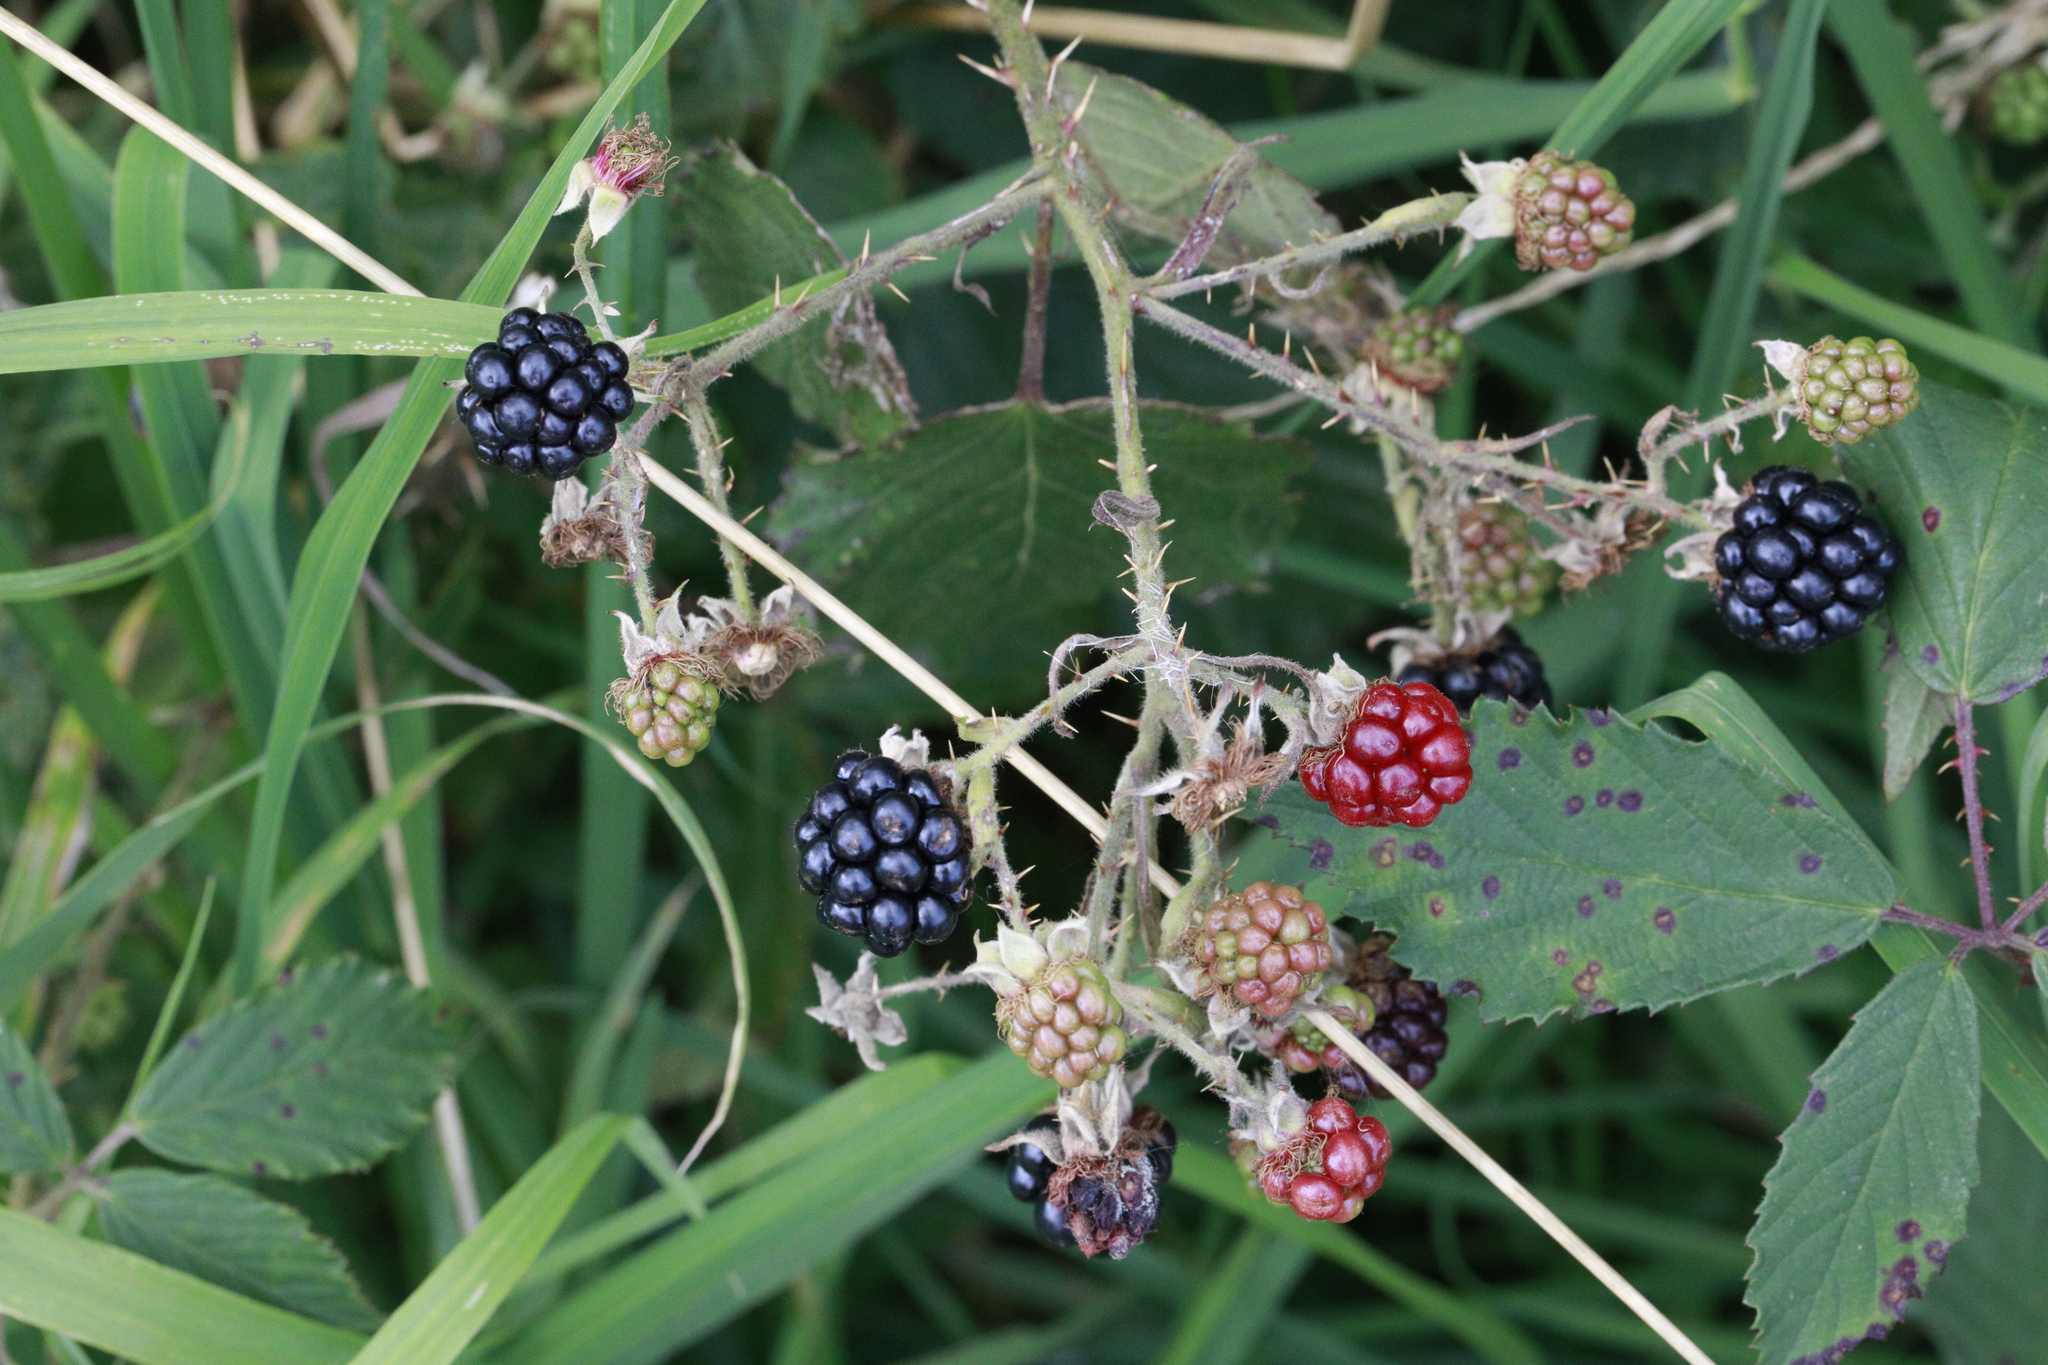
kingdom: Plantae
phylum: Tracheophyta
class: Magnoliopsida
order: Rosales
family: Rosaceae
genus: Rubus
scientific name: Rubus lindleyanus
